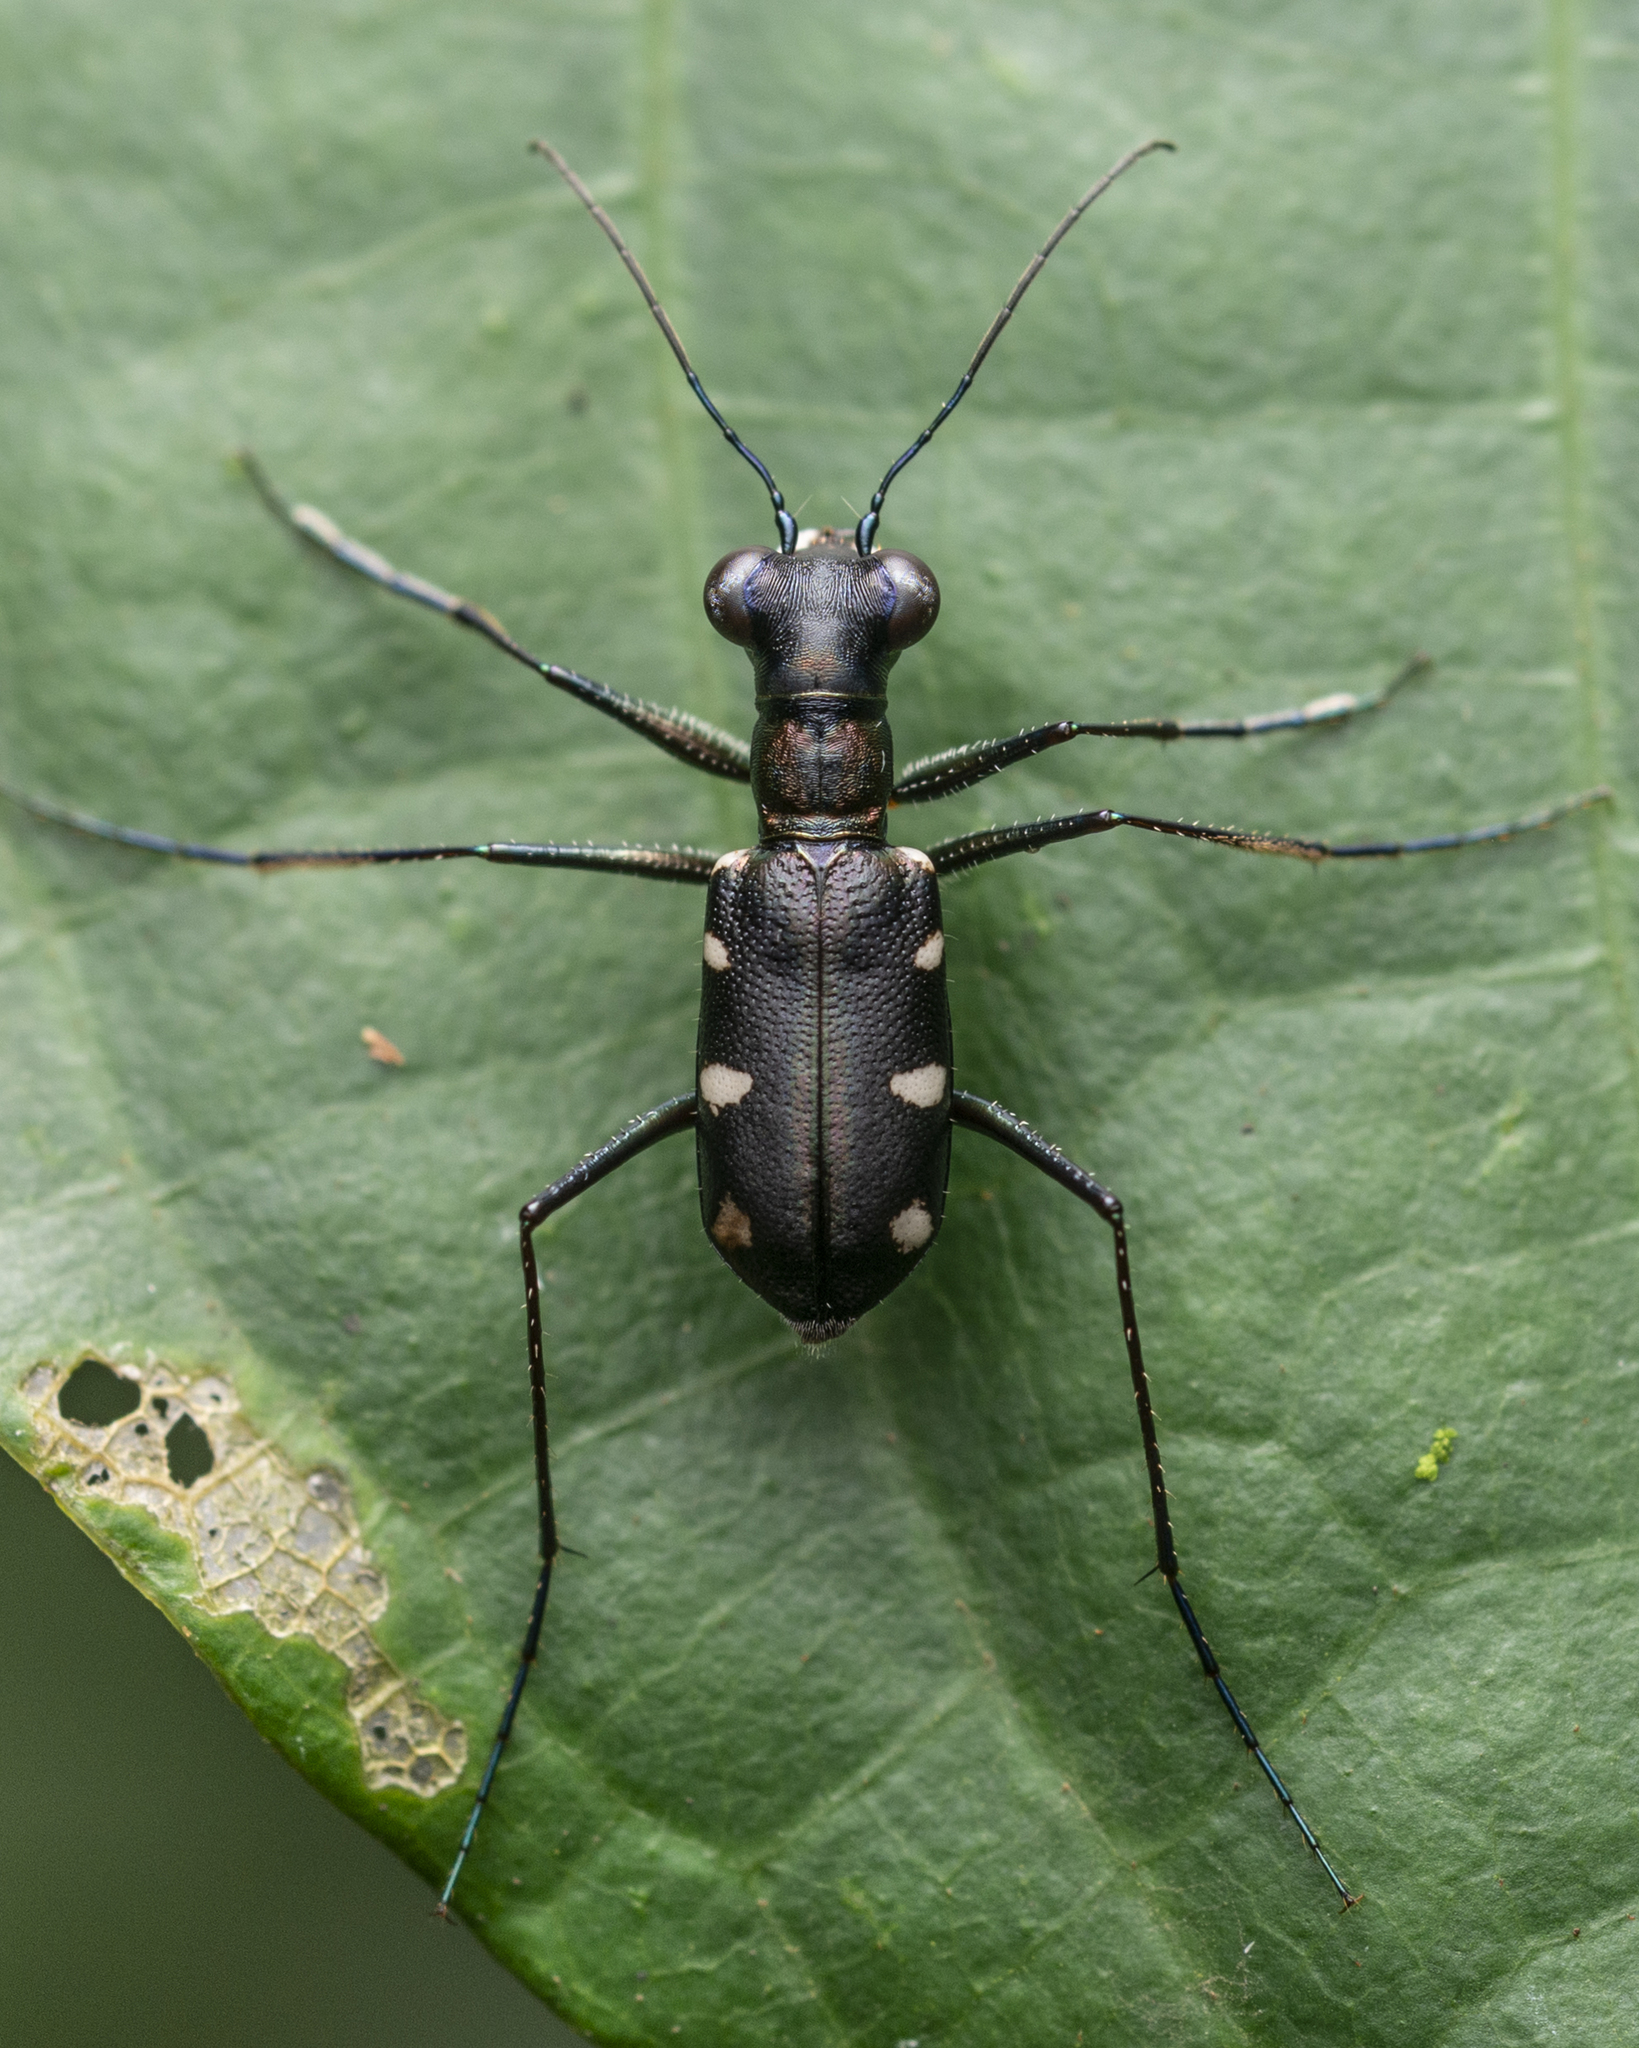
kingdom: Animalia
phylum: Arthropoda
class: Insecta
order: Coleoptera
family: Carabidae
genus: Cylindera
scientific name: Cylindera decolorata
